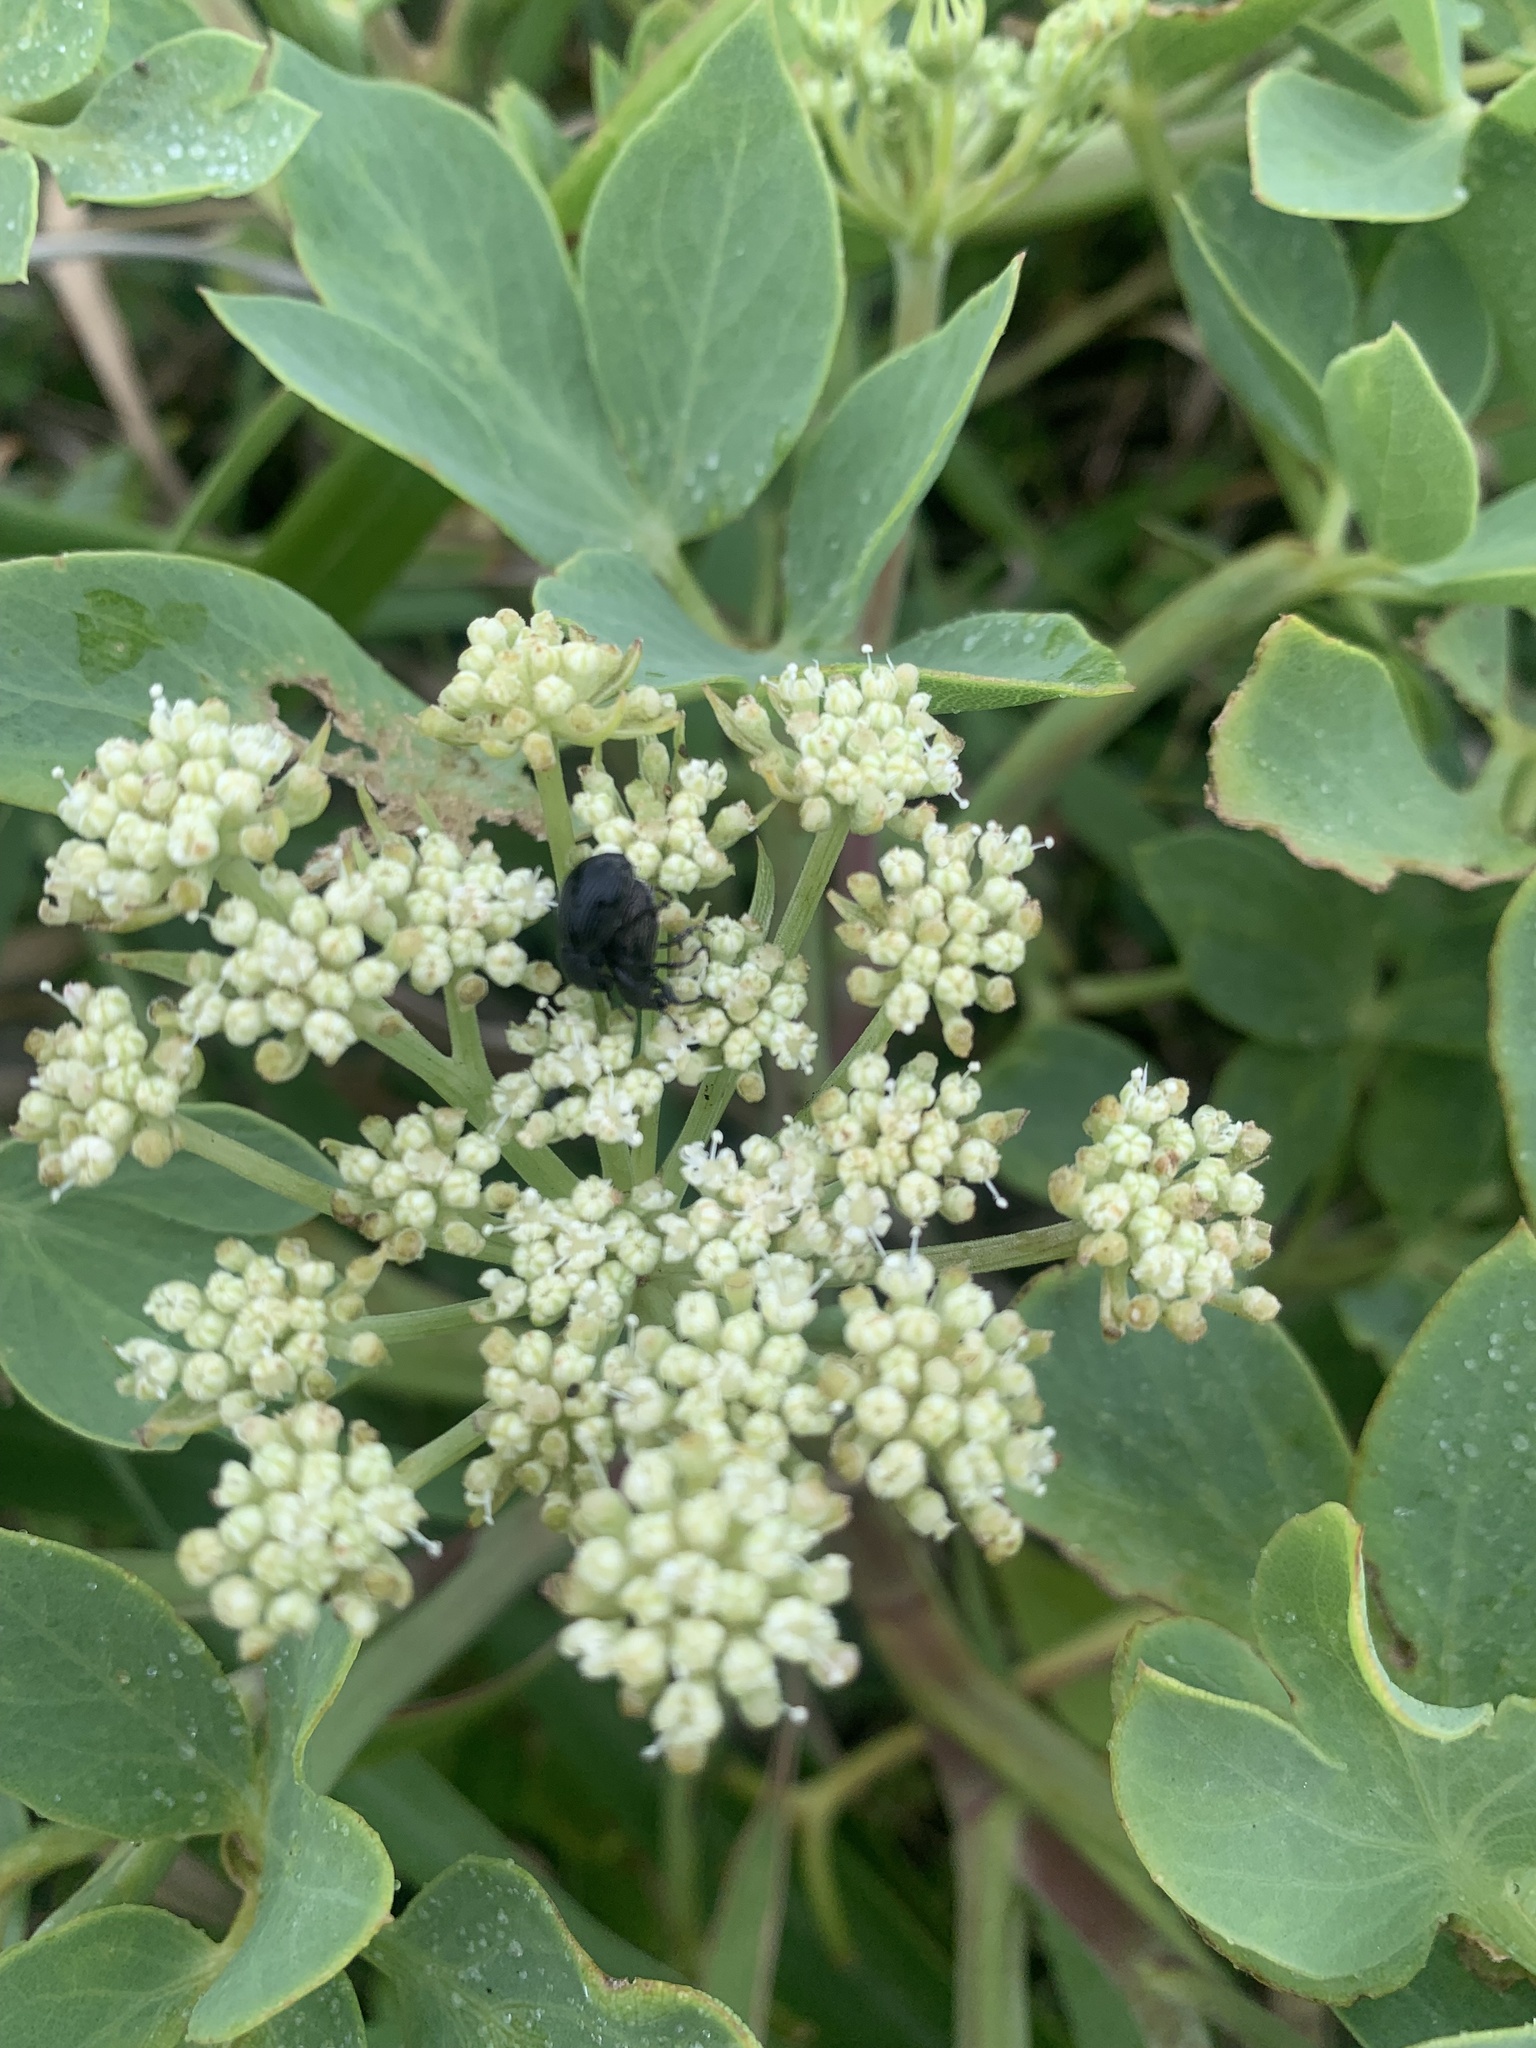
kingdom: Plantae
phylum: Tracheophyta
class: Magnoliopsida
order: Apiales
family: Apiaceae
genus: Peucedanum
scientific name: Peucedanum japonicum
